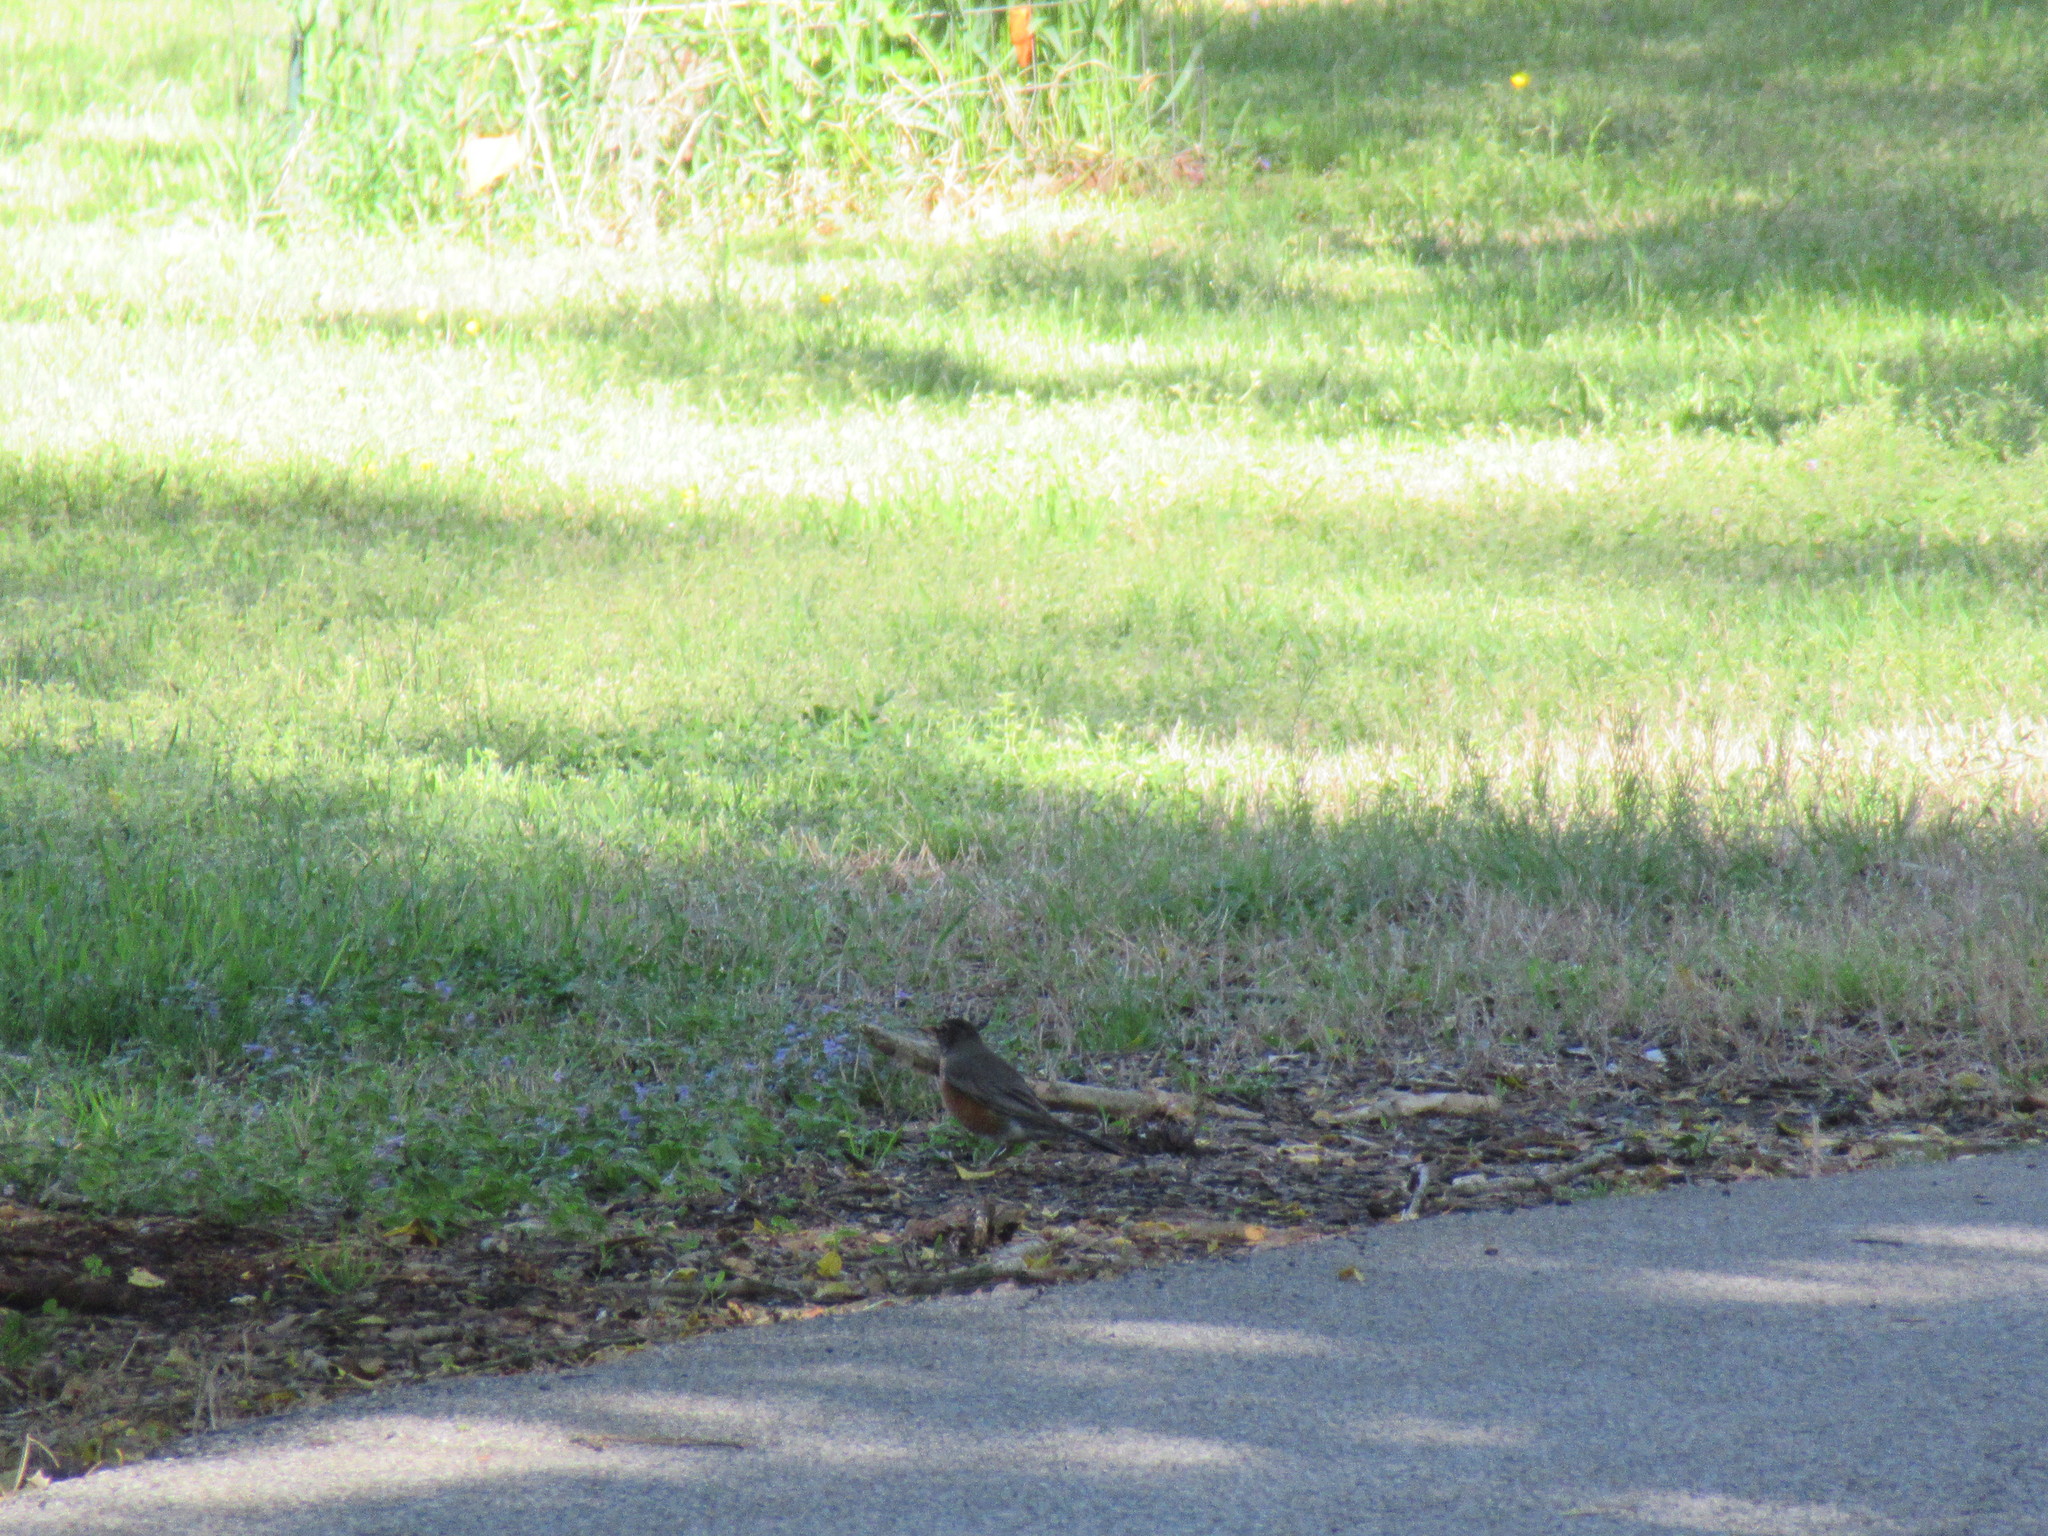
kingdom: Animalia
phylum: Chordata
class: Aves
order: Passeriformes
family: Turdidae
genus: Turdus
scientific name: Turdus migratorius
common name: American robin
